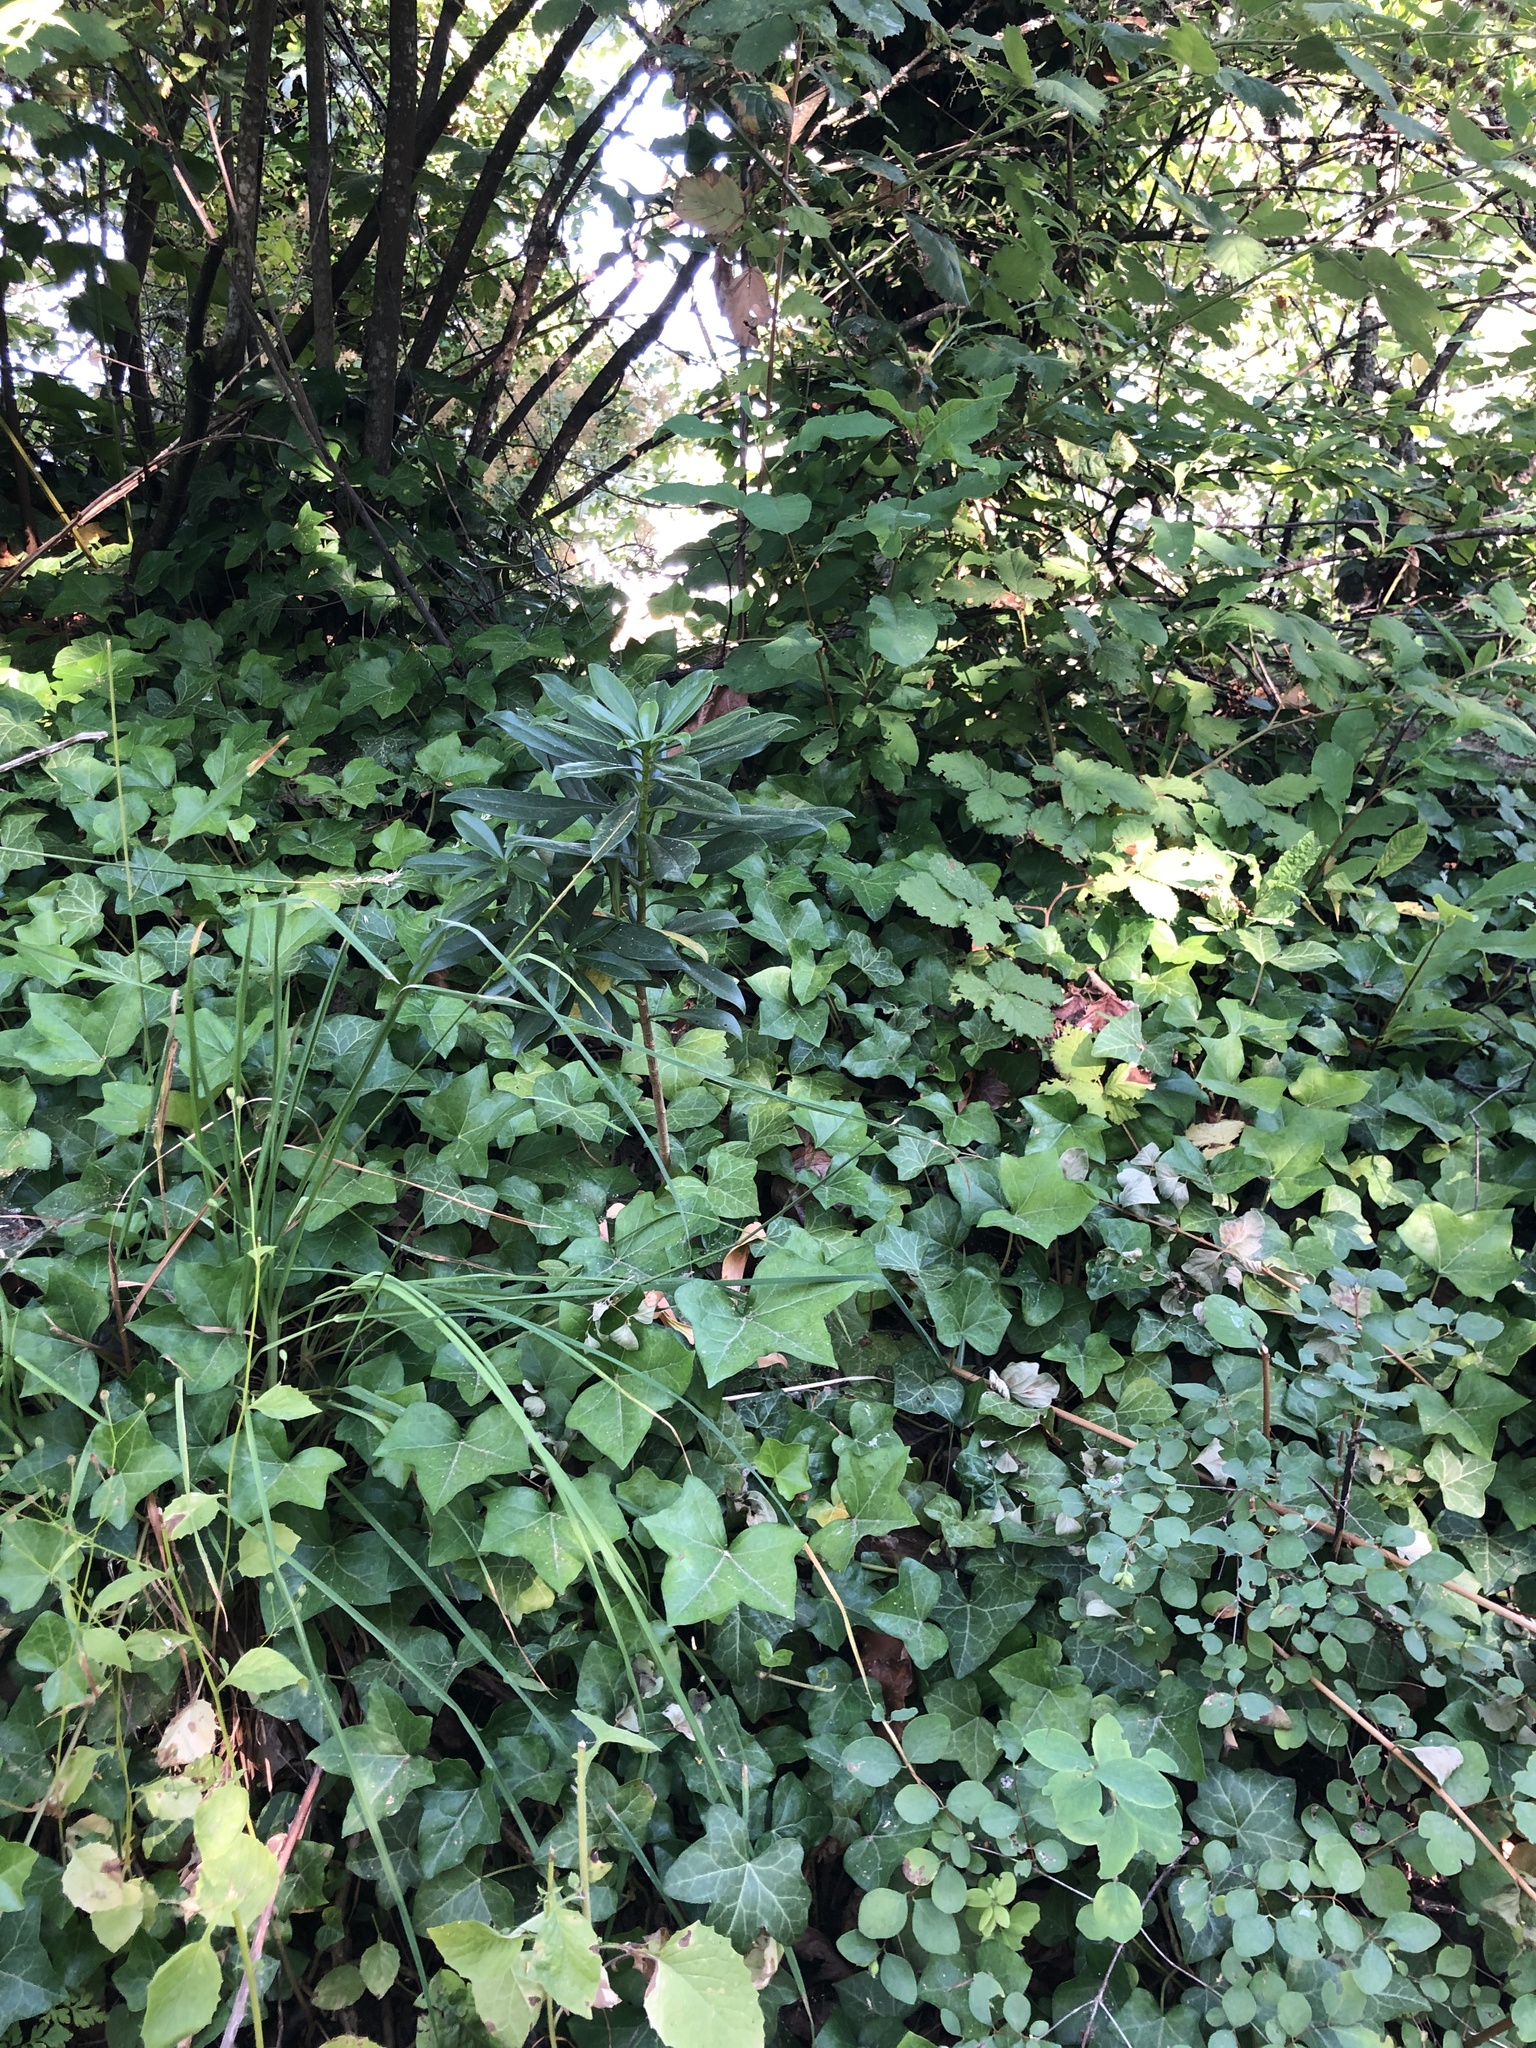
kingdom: Plantae
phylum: Tracheophyta
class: Magnoliopsida
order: Malvales
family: Thymelaeaceae
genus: Daphne
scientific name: Daphne laureola
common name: Spurge-laurel
